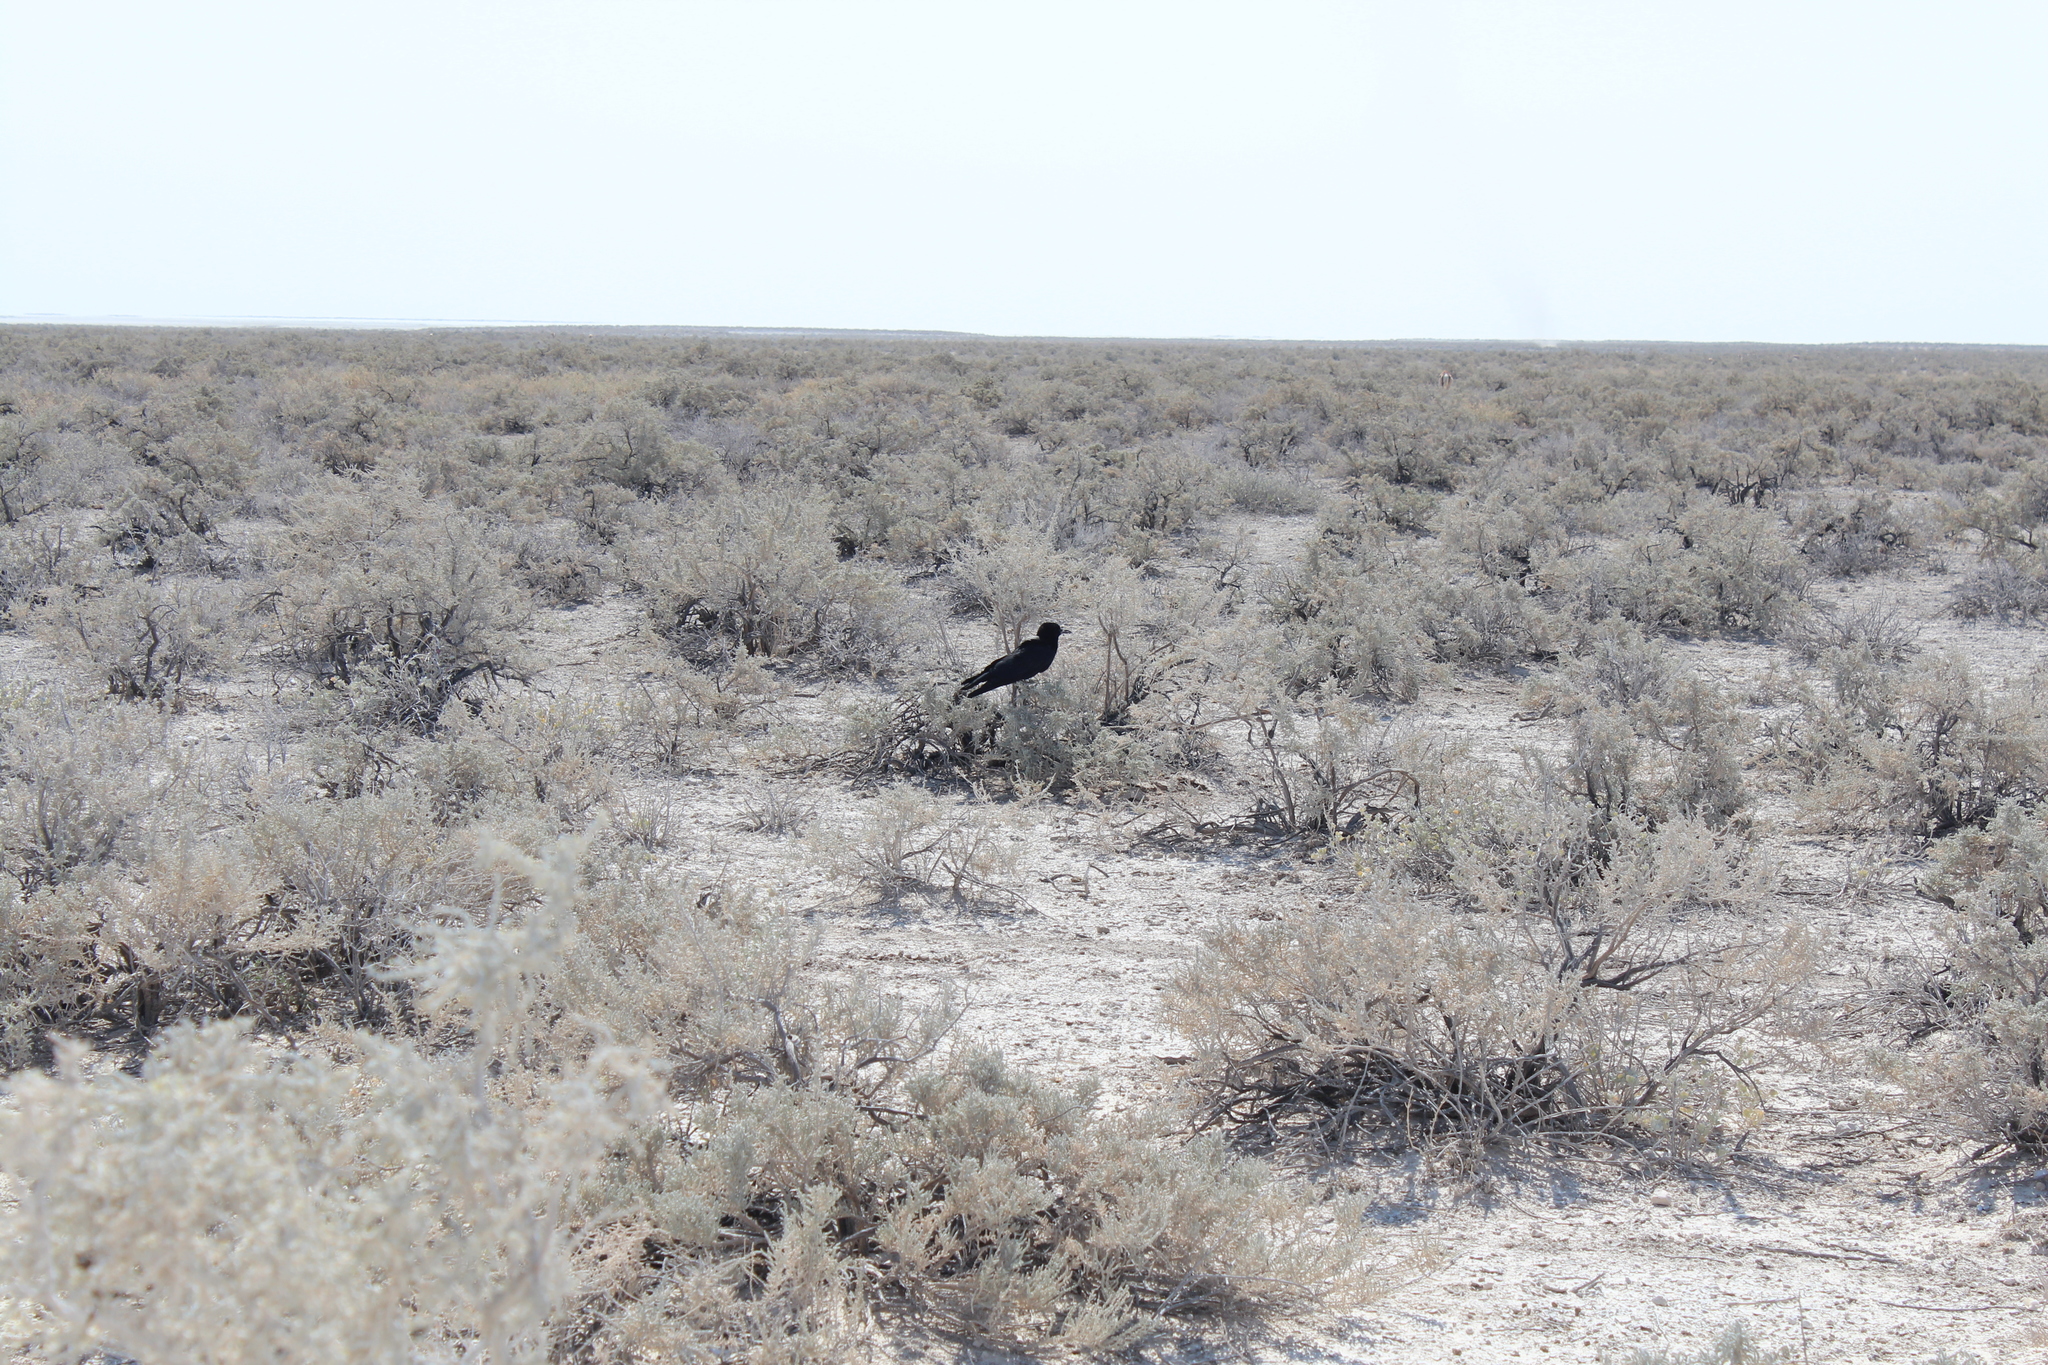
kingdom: Animalia
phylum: Chordata
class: Aves
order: Passeriformes
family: Corvidae
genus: Corvus
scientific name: Corvus capensis
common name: Cape crow
